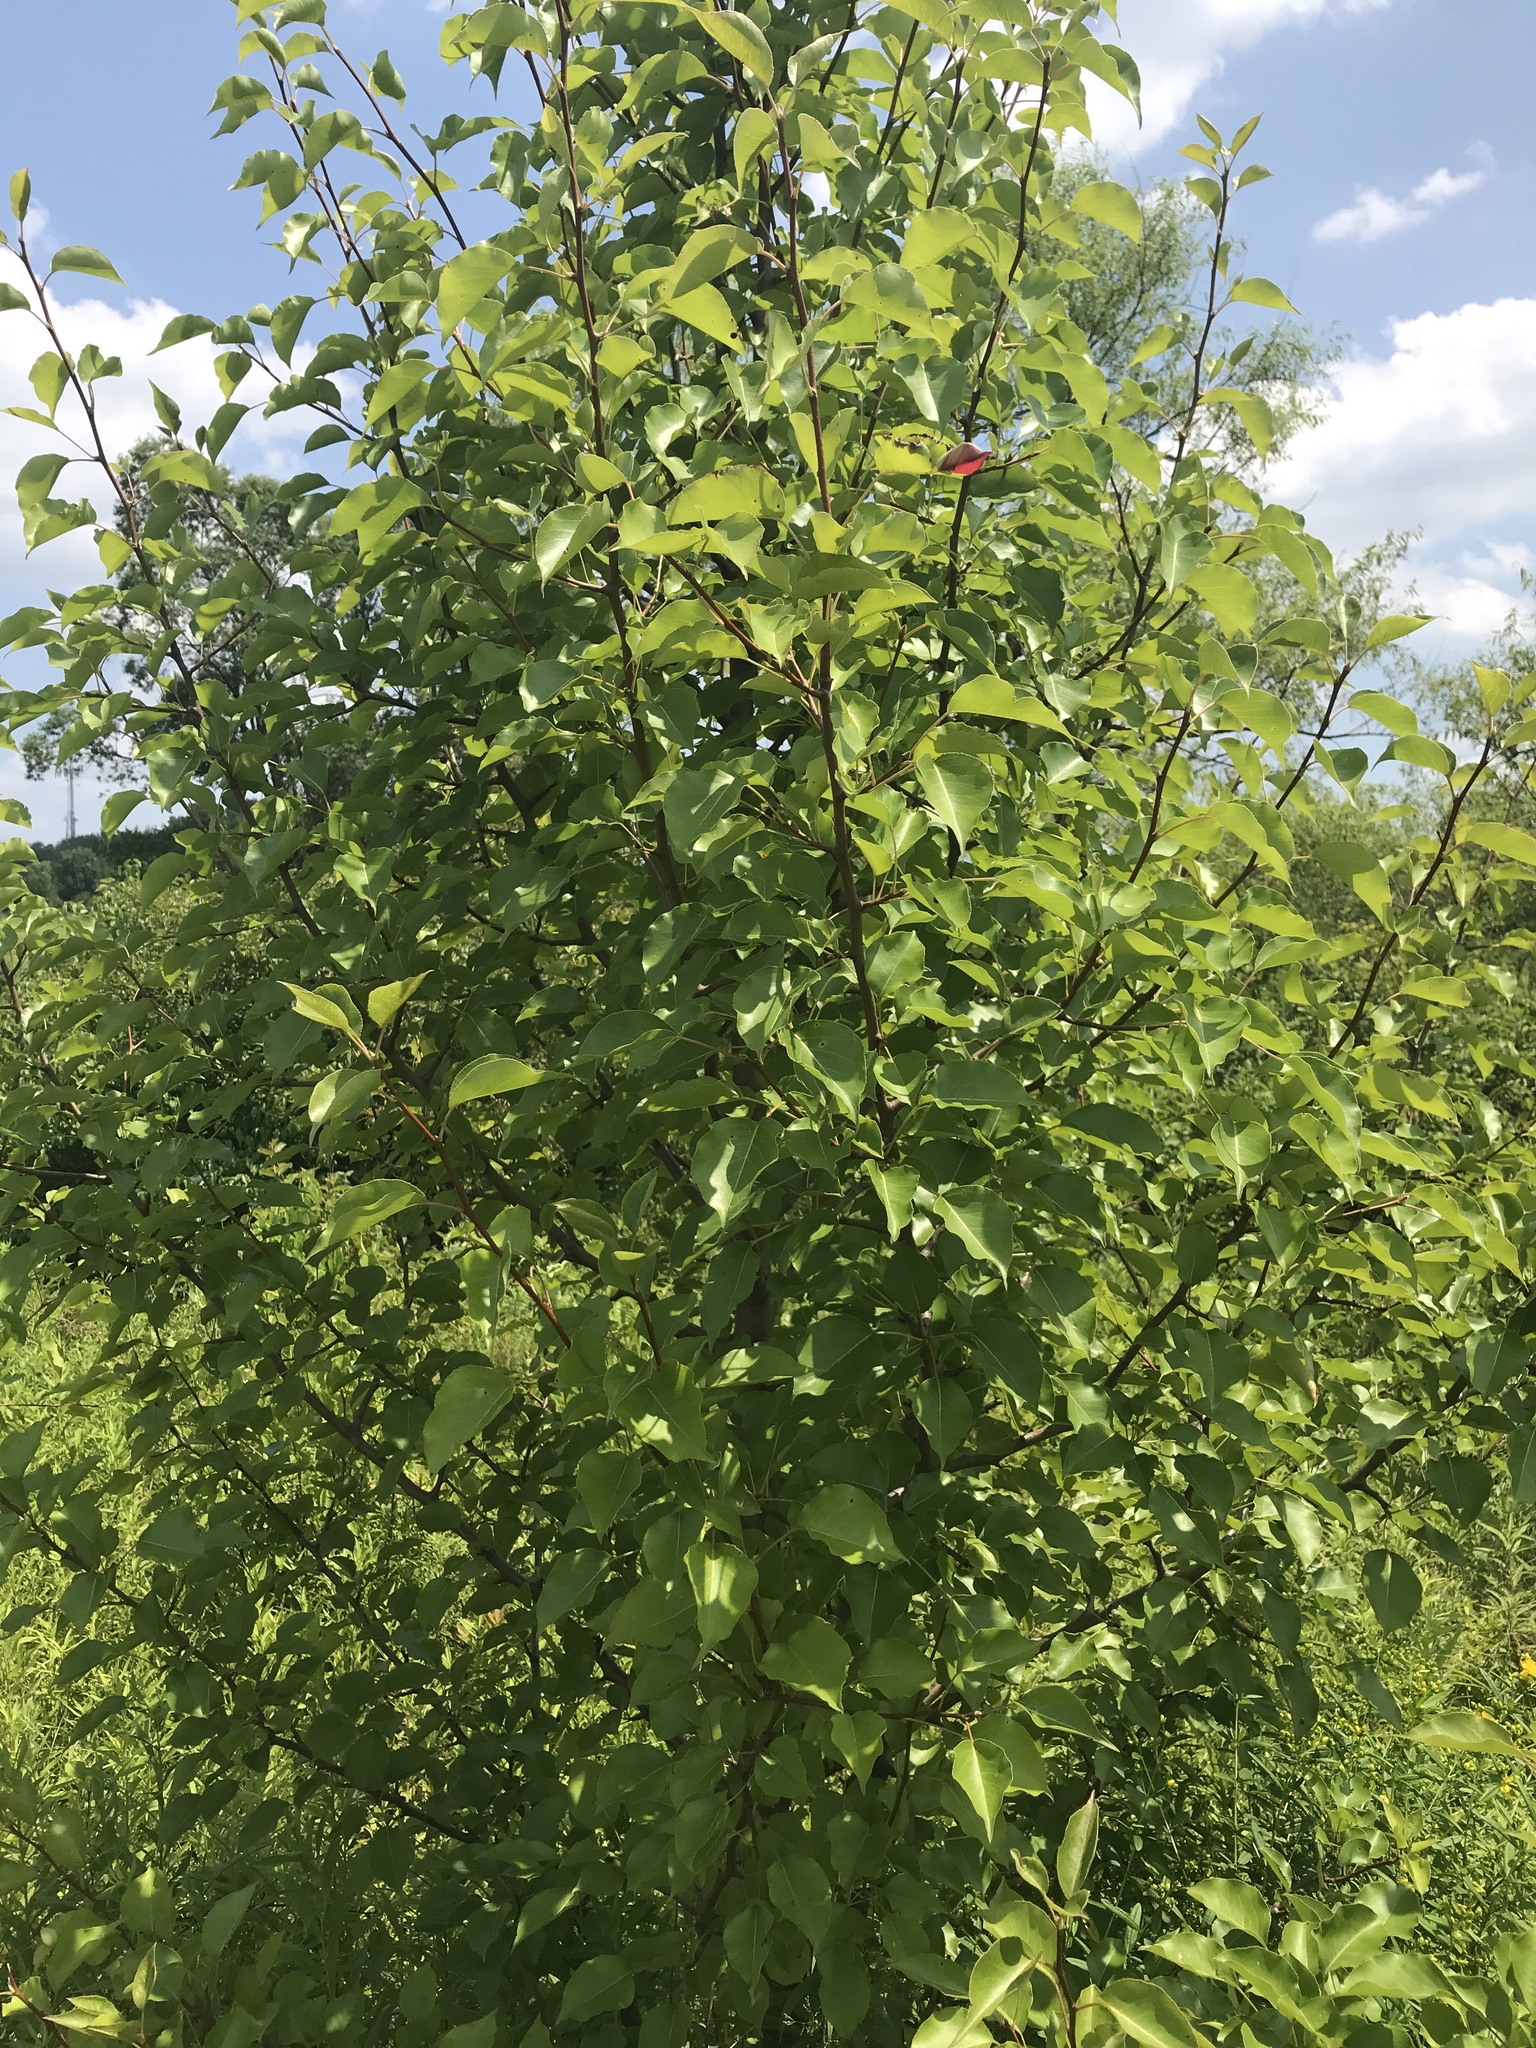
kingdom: Plantae
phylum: Tracheophyta
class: Magnoliopsida
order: Rosales
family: Rosaceae
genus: Pyrus
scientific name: Pyrus calleryana
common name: Callery pear
